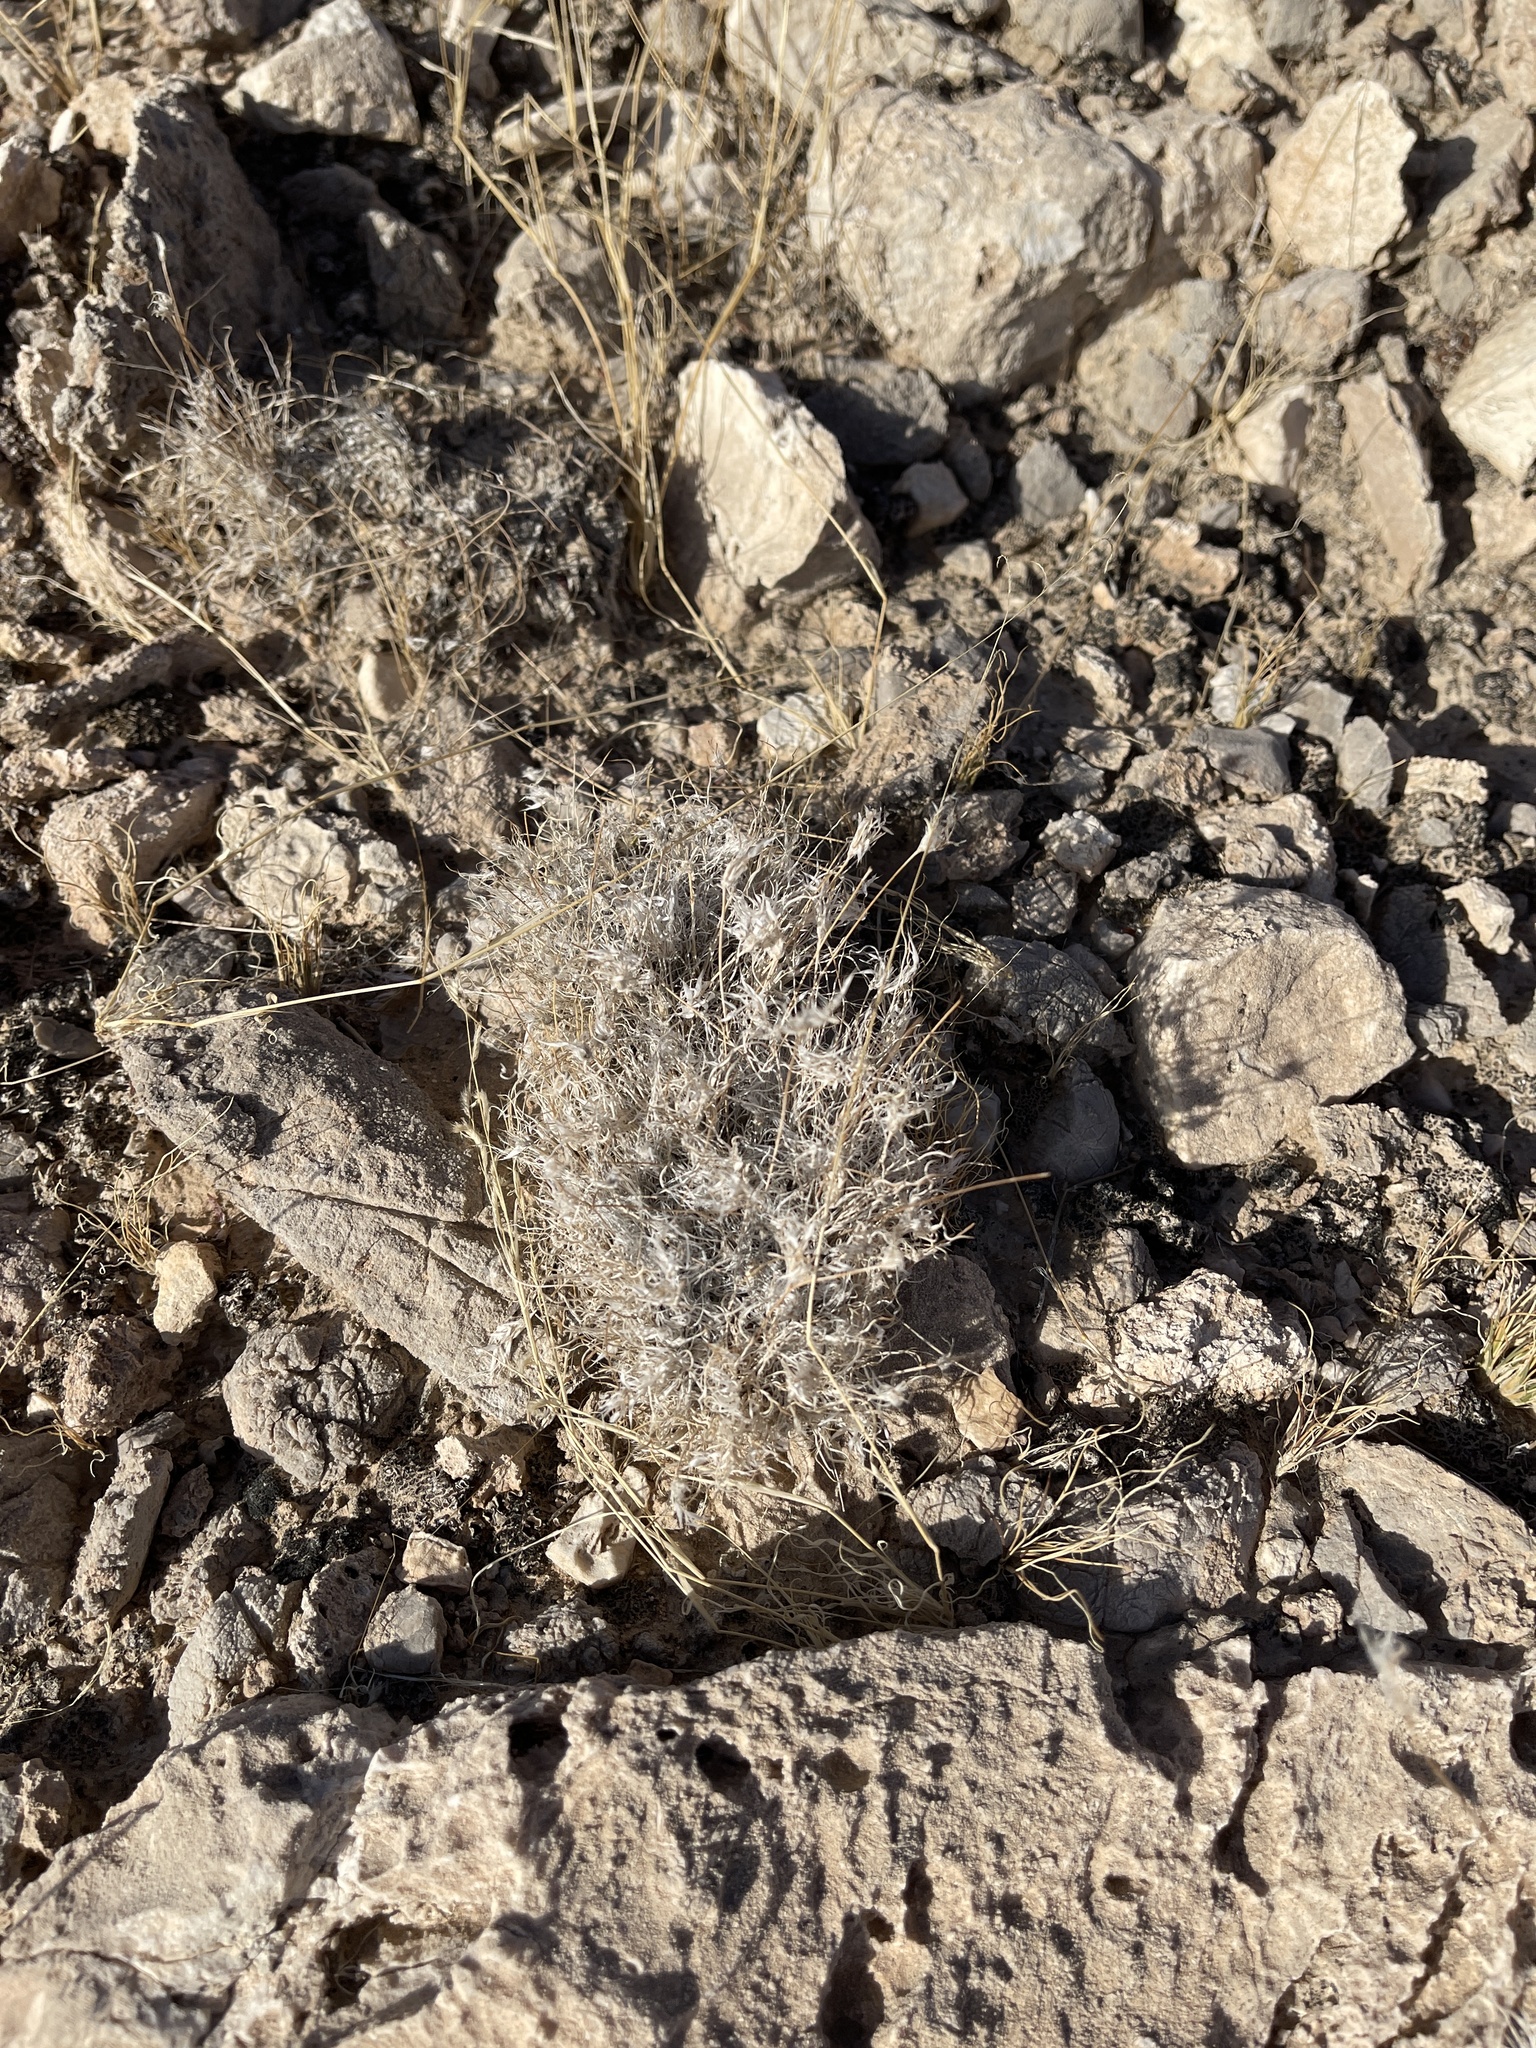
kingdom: Plantae
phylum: Tracheophyta
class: Liliopsida
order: Poales
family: Poaceae
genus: Dasyochloa
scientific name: Dasyochloa pulchella
